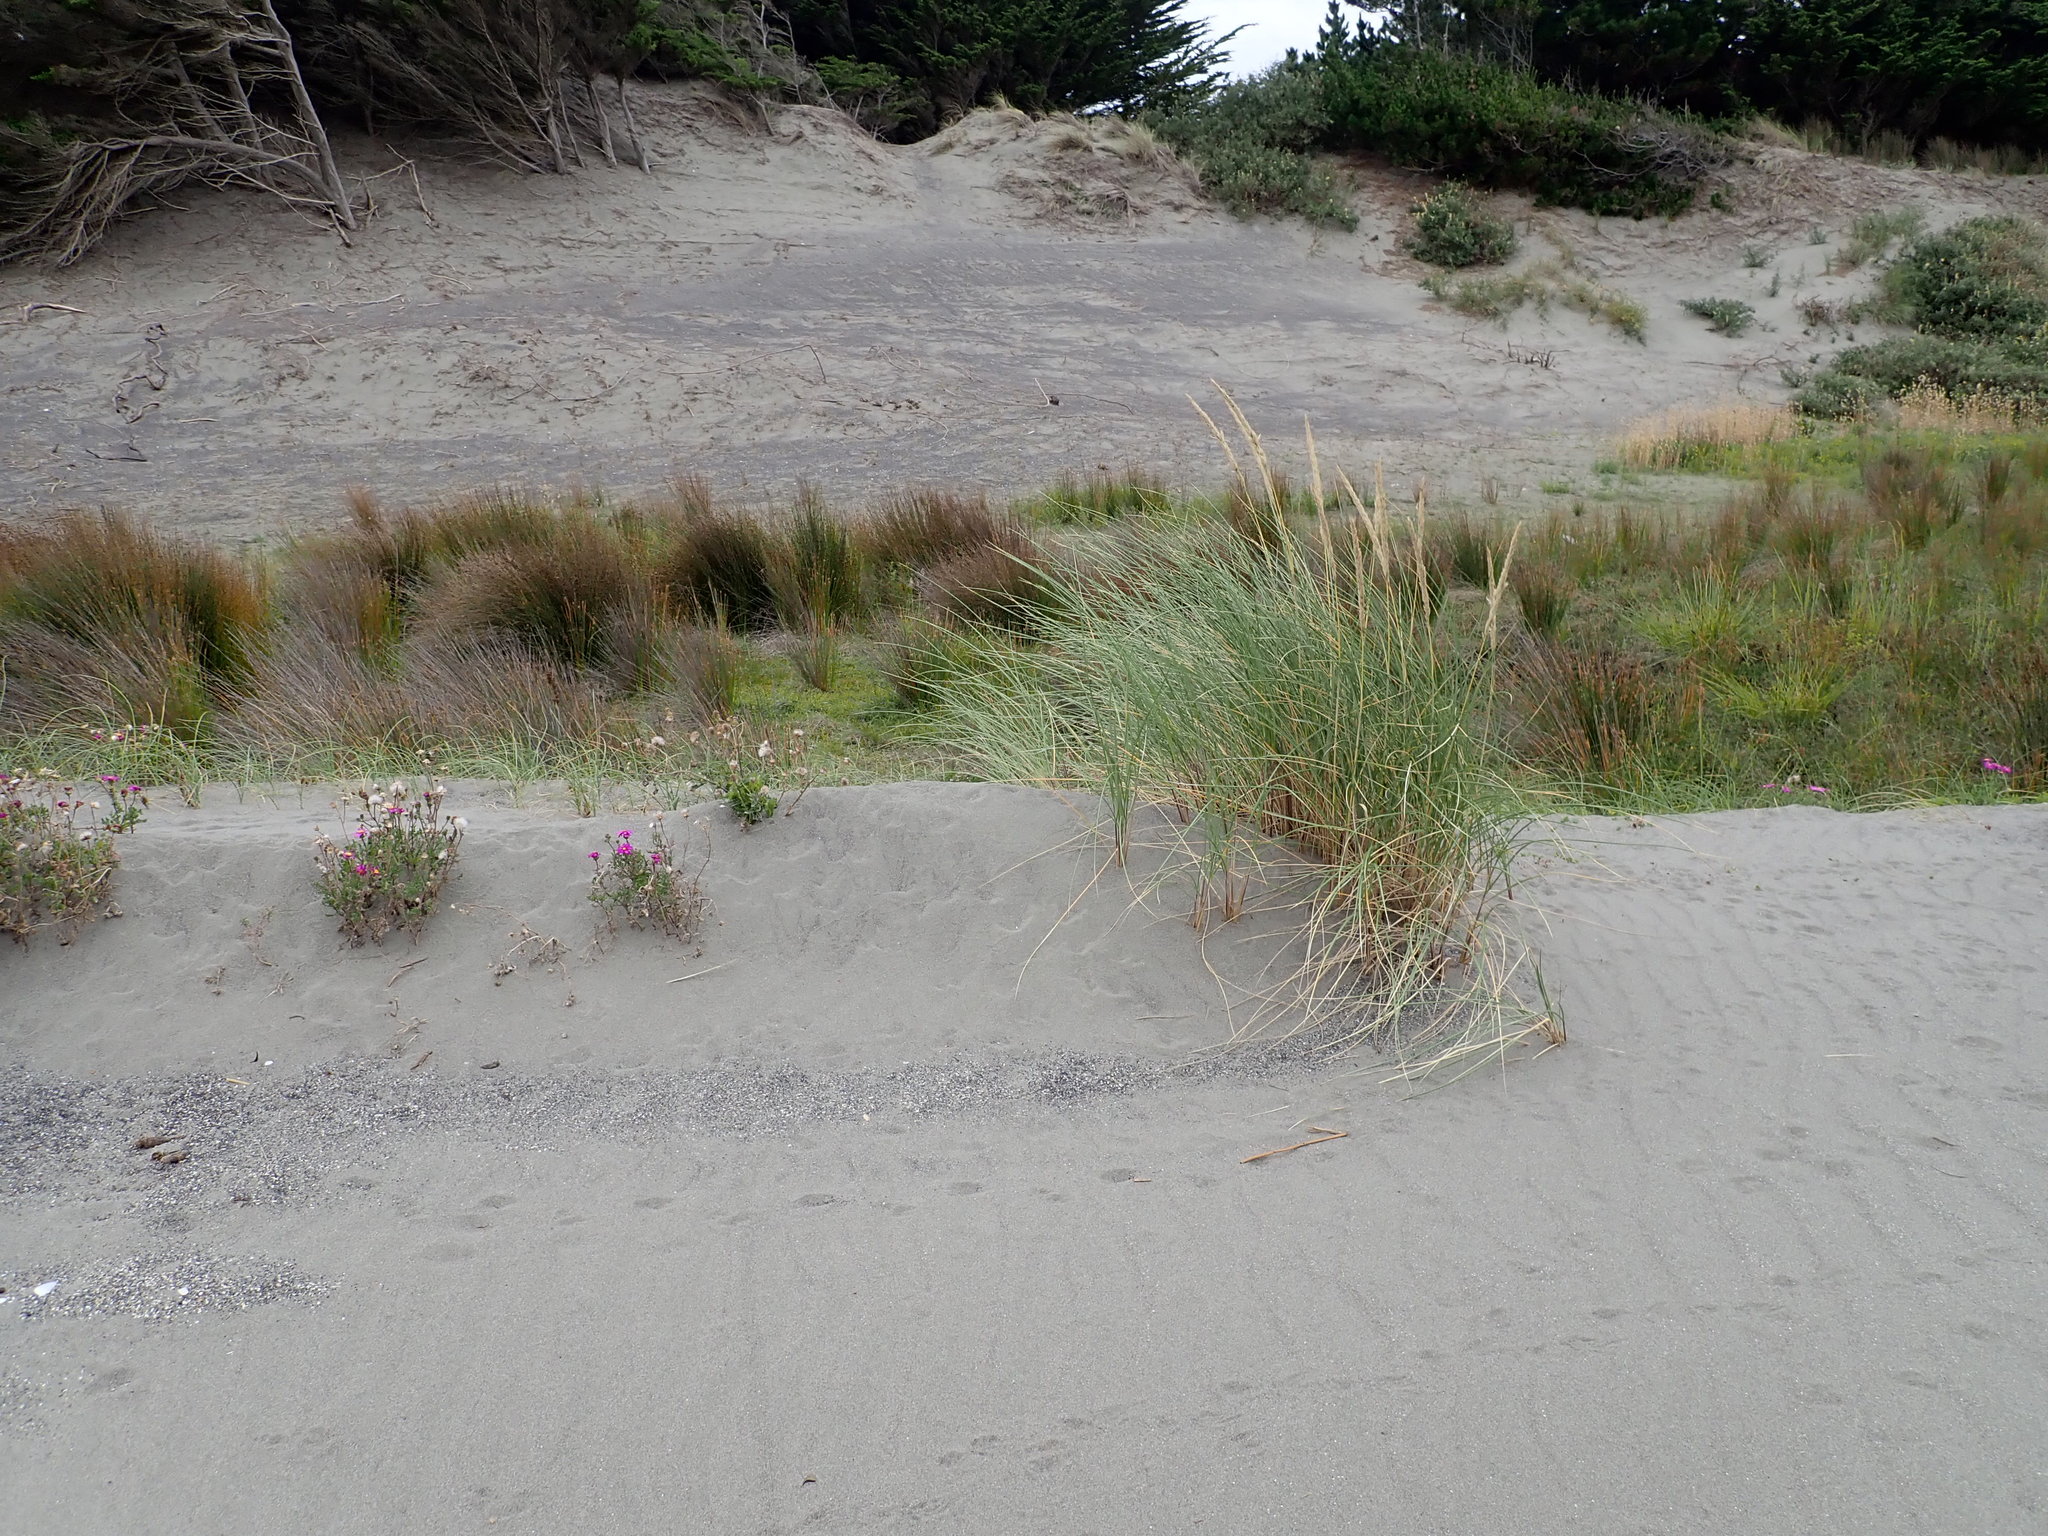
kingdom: Plantae
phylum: Tracheophyta
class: Liliopsida
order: Poales
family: Poaceae
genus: Calamagrostis
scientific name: Calamagrostis arenaria
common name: European beachgrass
